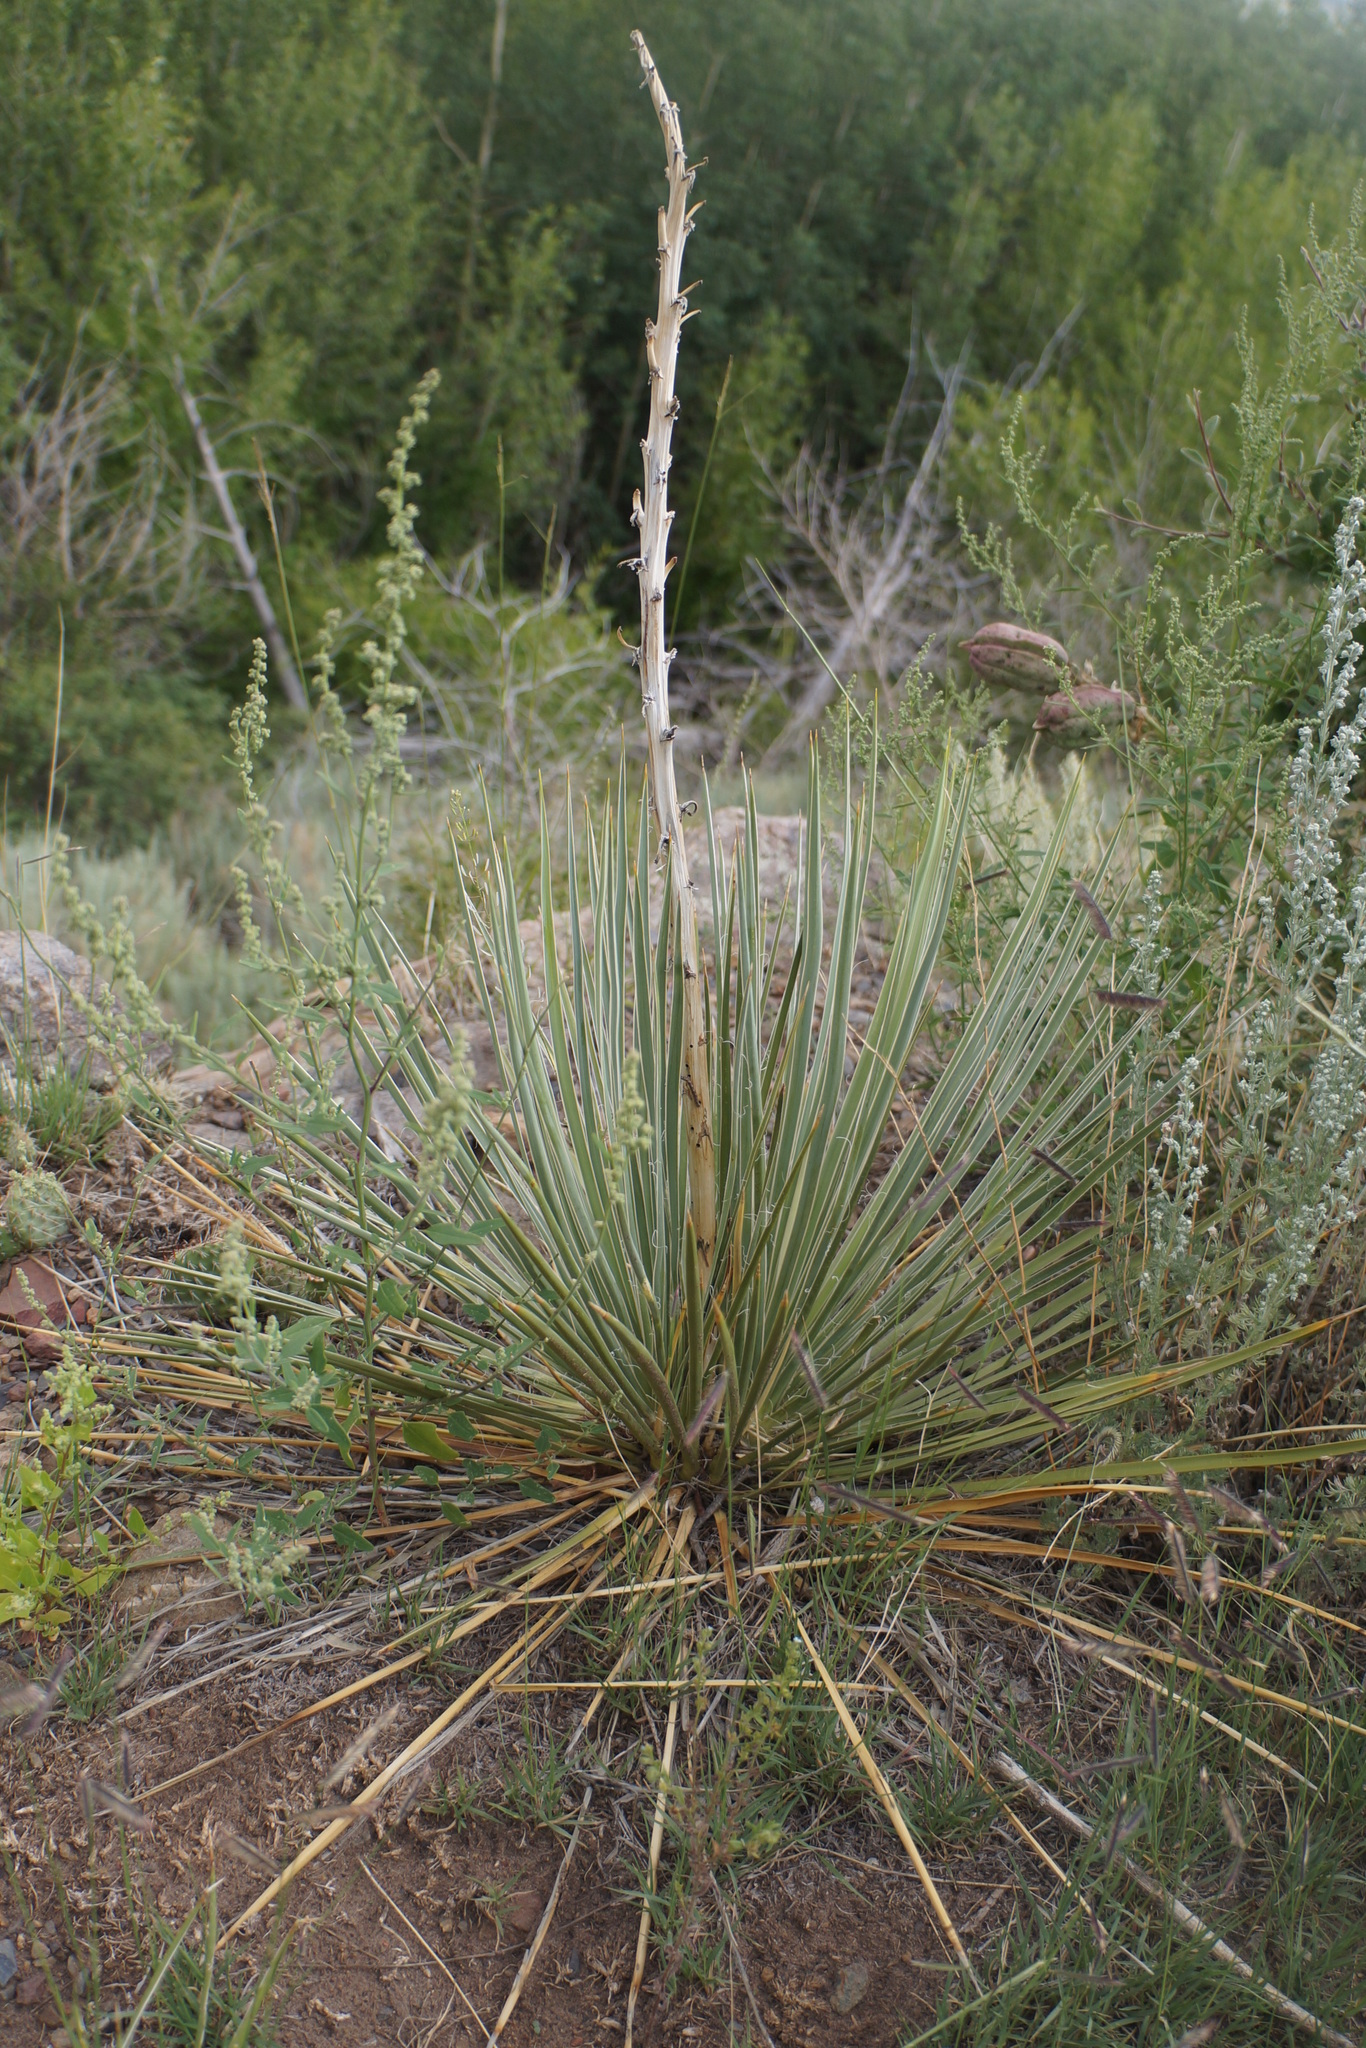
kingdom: Plantae
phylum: Tracheophyta
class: Liliopsida
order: Asparagales
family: Asparagaceae
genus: Yucca
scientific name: Yucca glauca
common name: Great plains yucca
